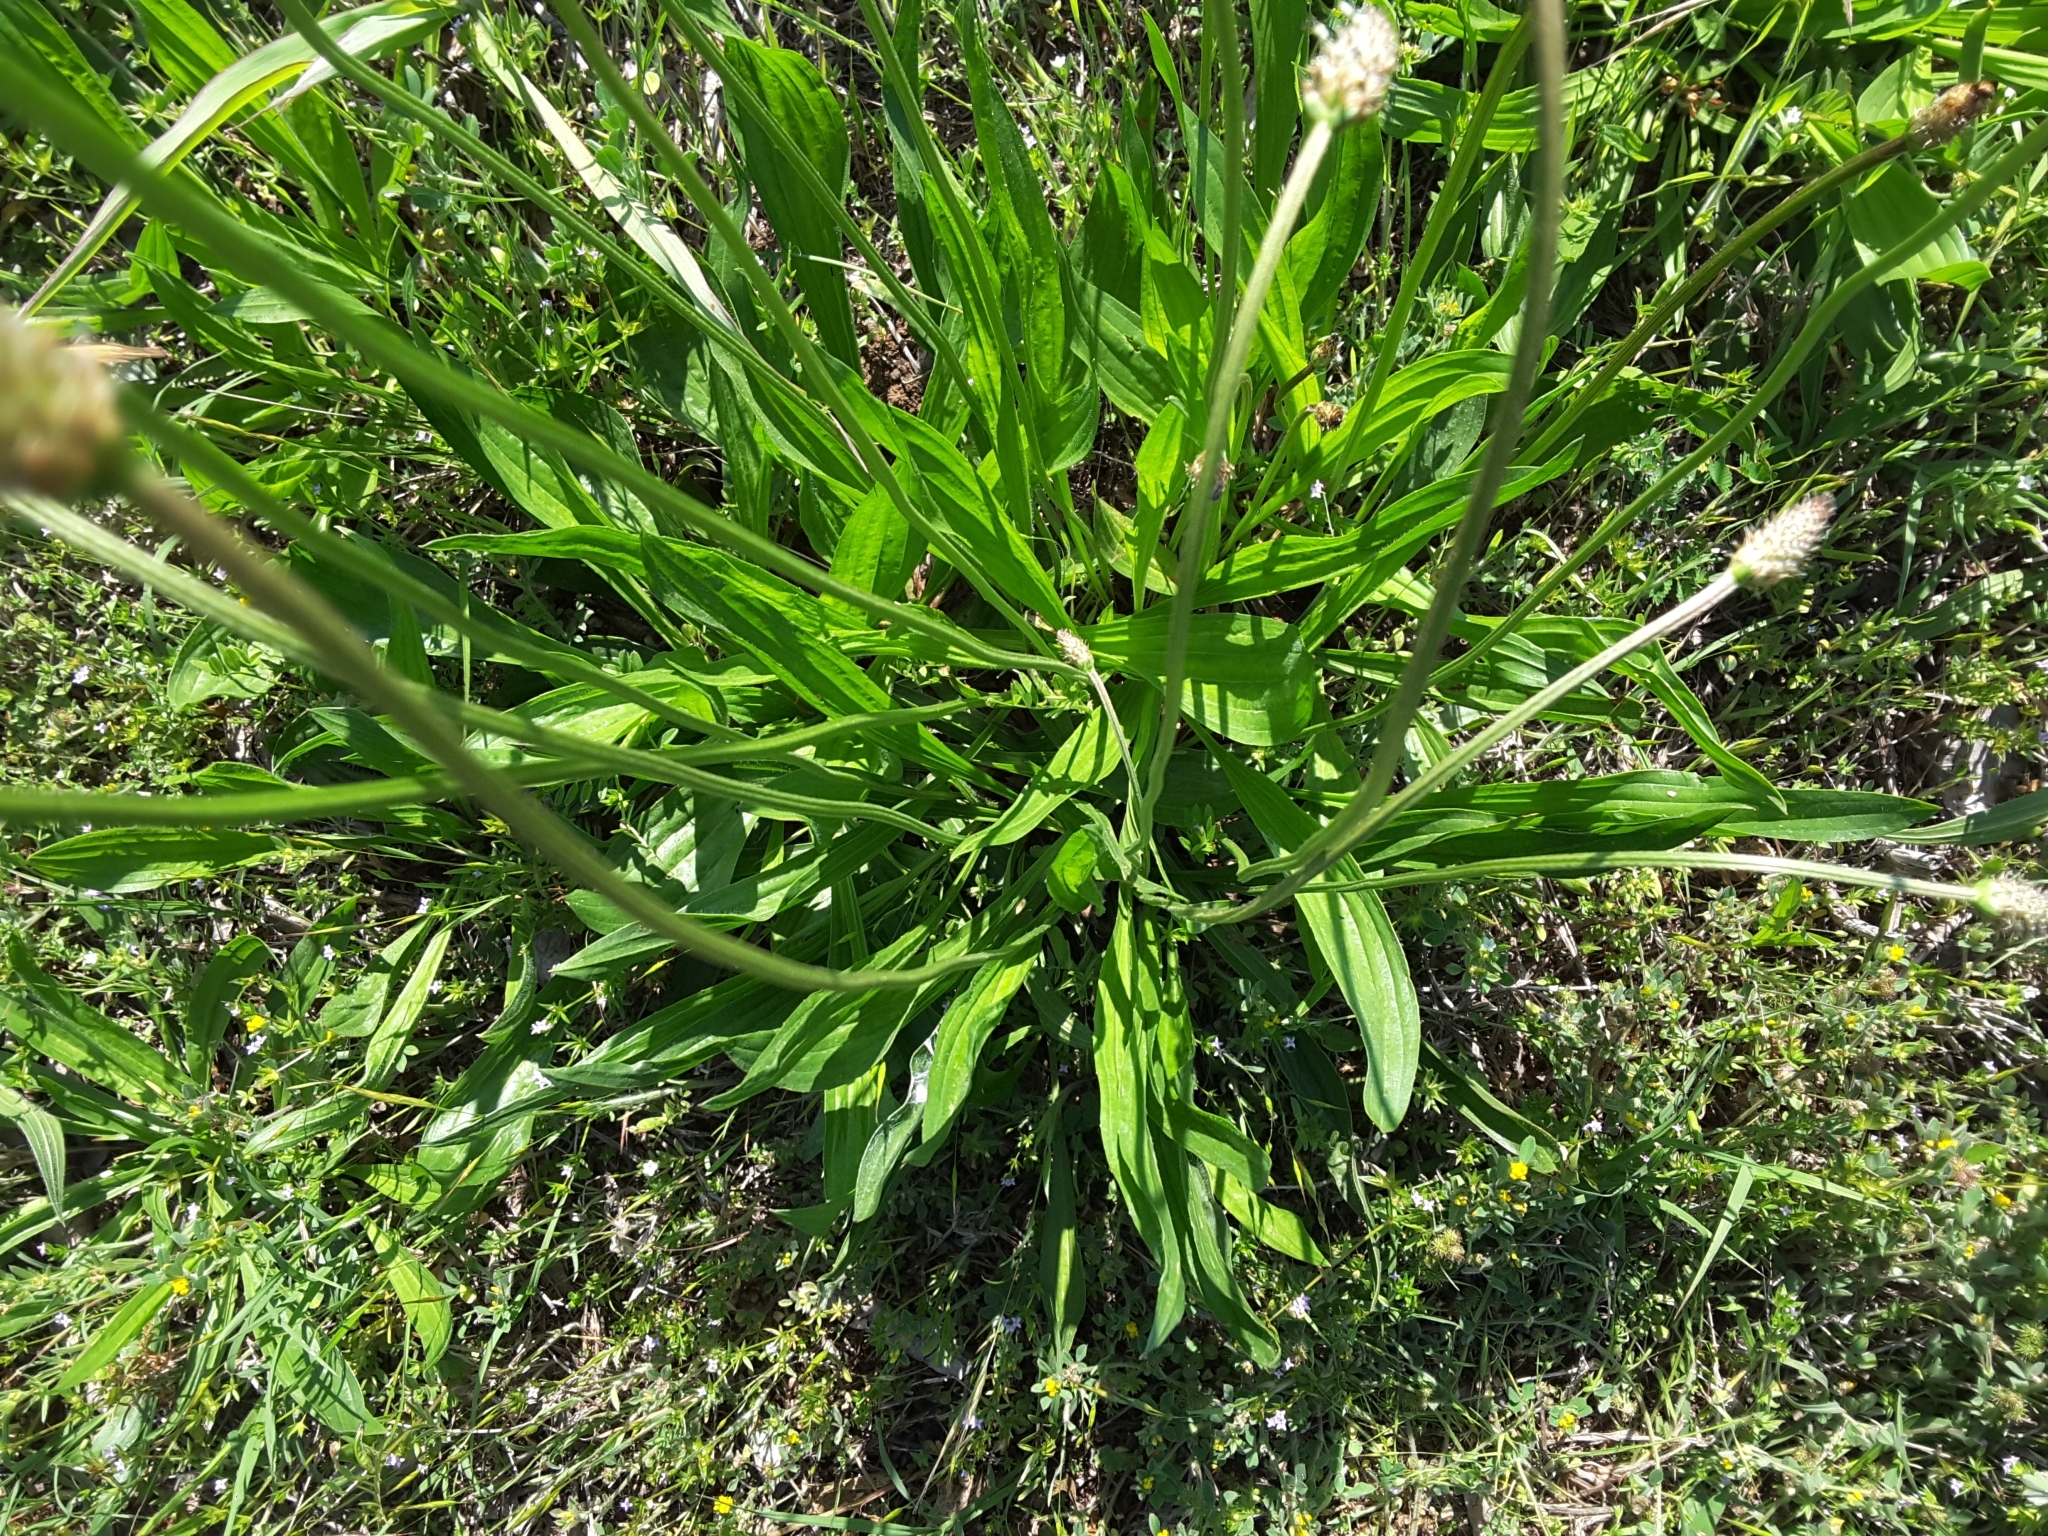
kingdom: Plantae
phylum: Tracheophyta
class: Magnoliopsida
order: Lamiales
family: Plantaginaceae
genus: Plantago
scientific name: Plantago lanceolata
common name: Ribwort plantain
